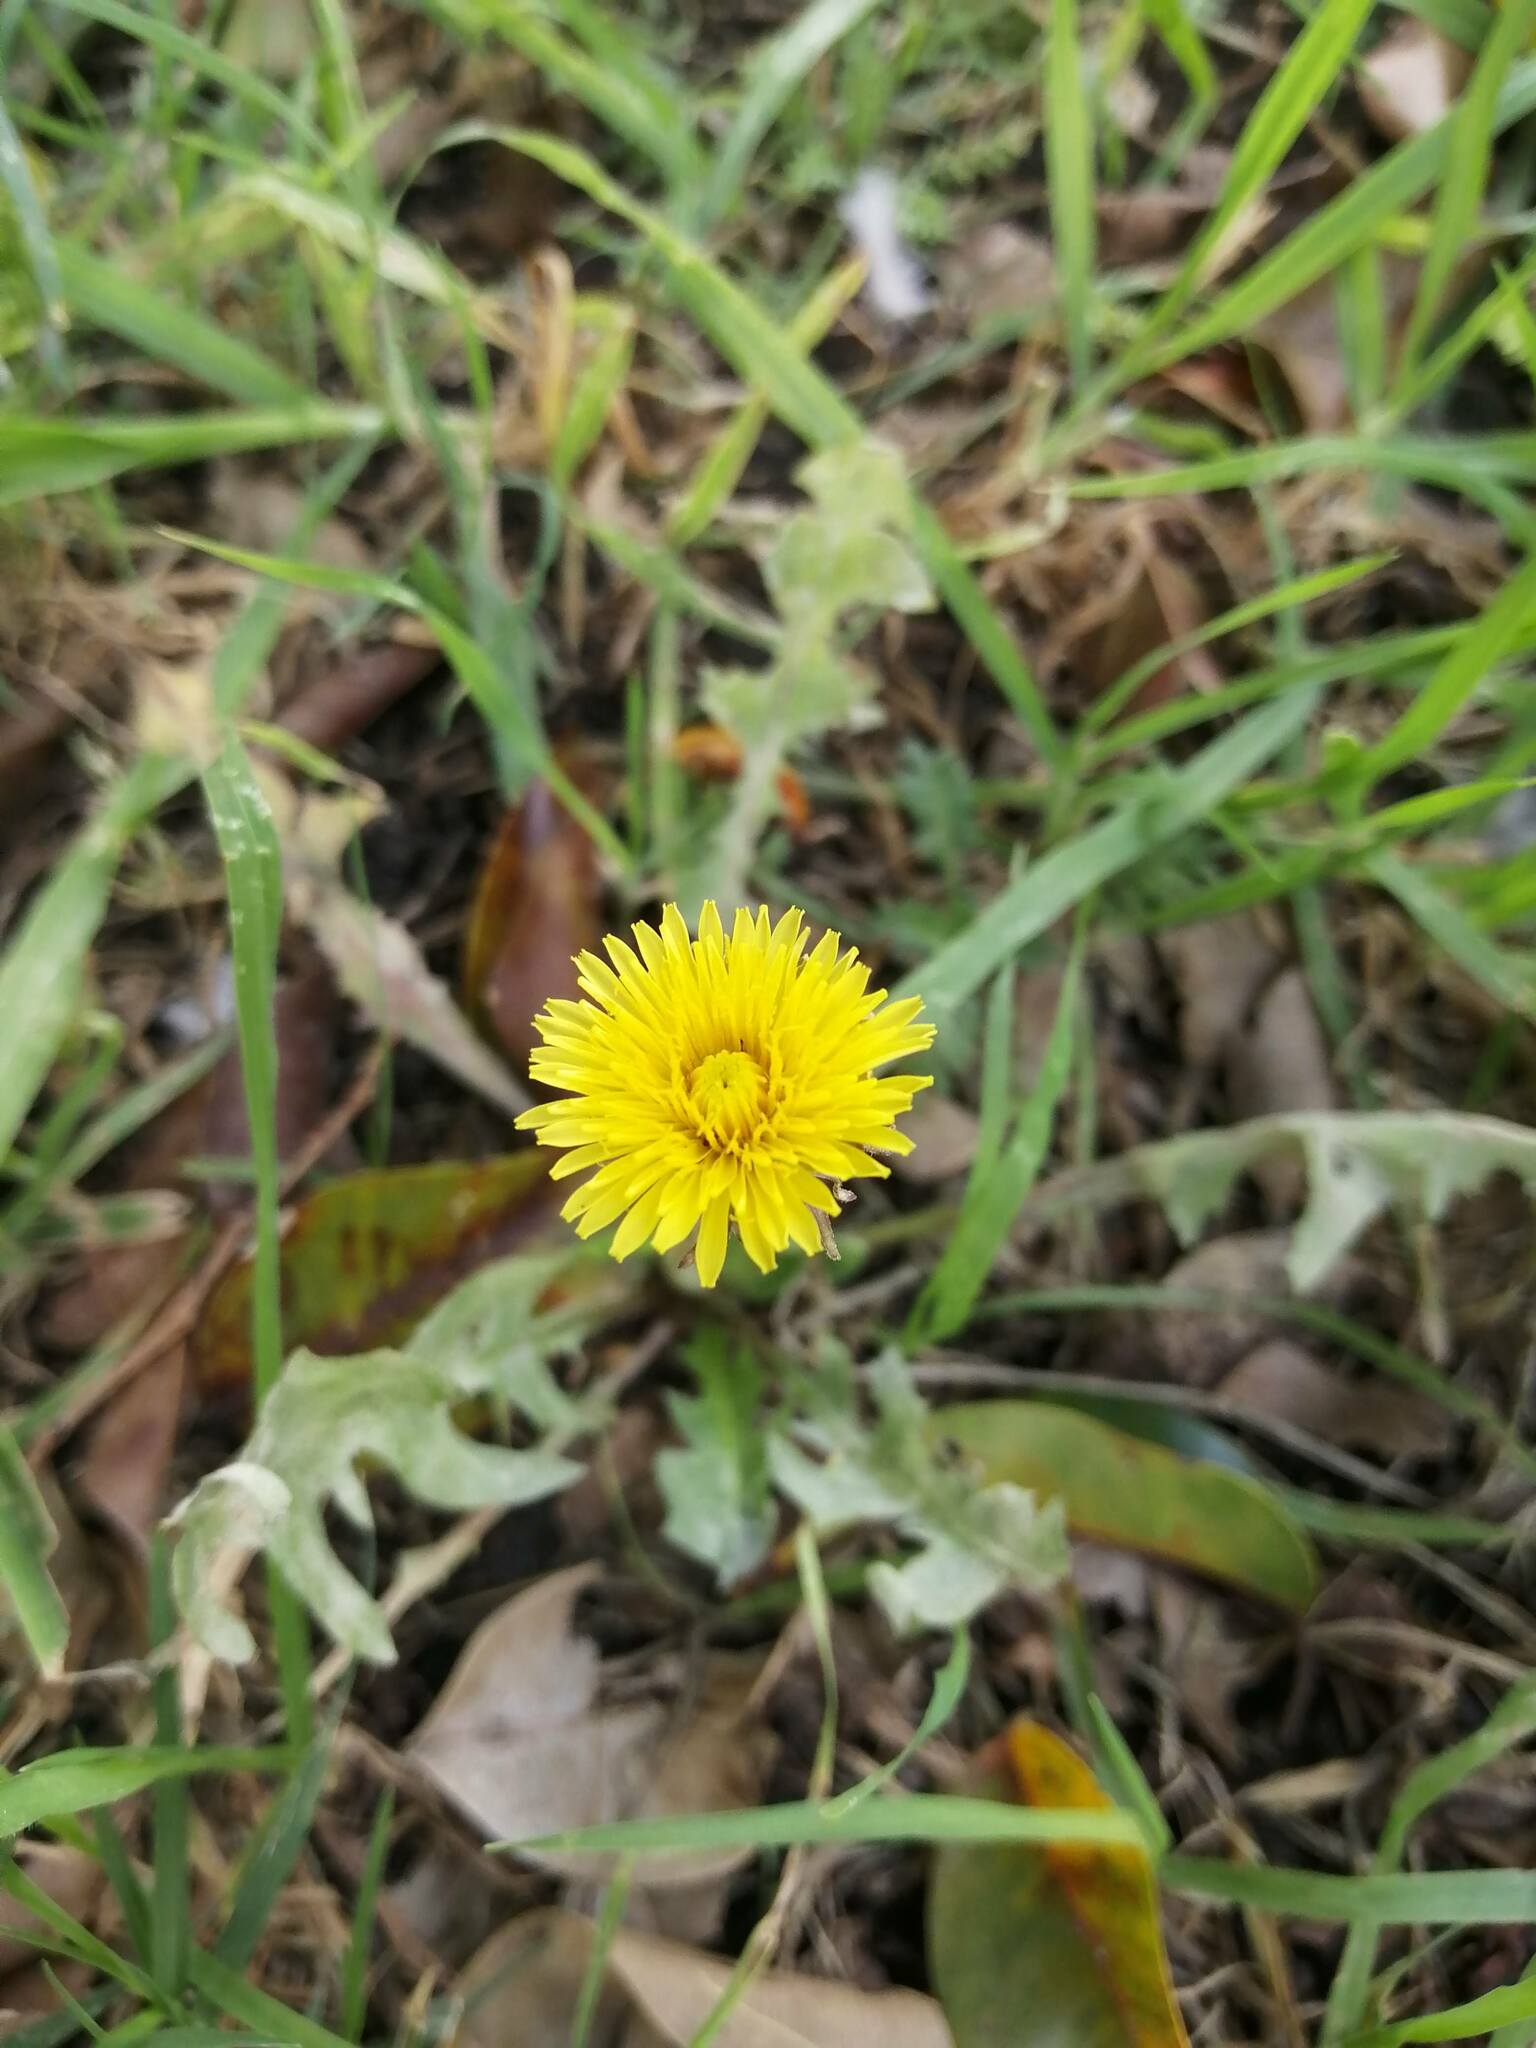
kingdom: Plantae
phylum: Tracheophyta
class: Magnoliopsida
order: Asterales
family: Asteraceae
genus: Taraxacum
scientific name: Taraxacum officinale
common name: Common dandelion
